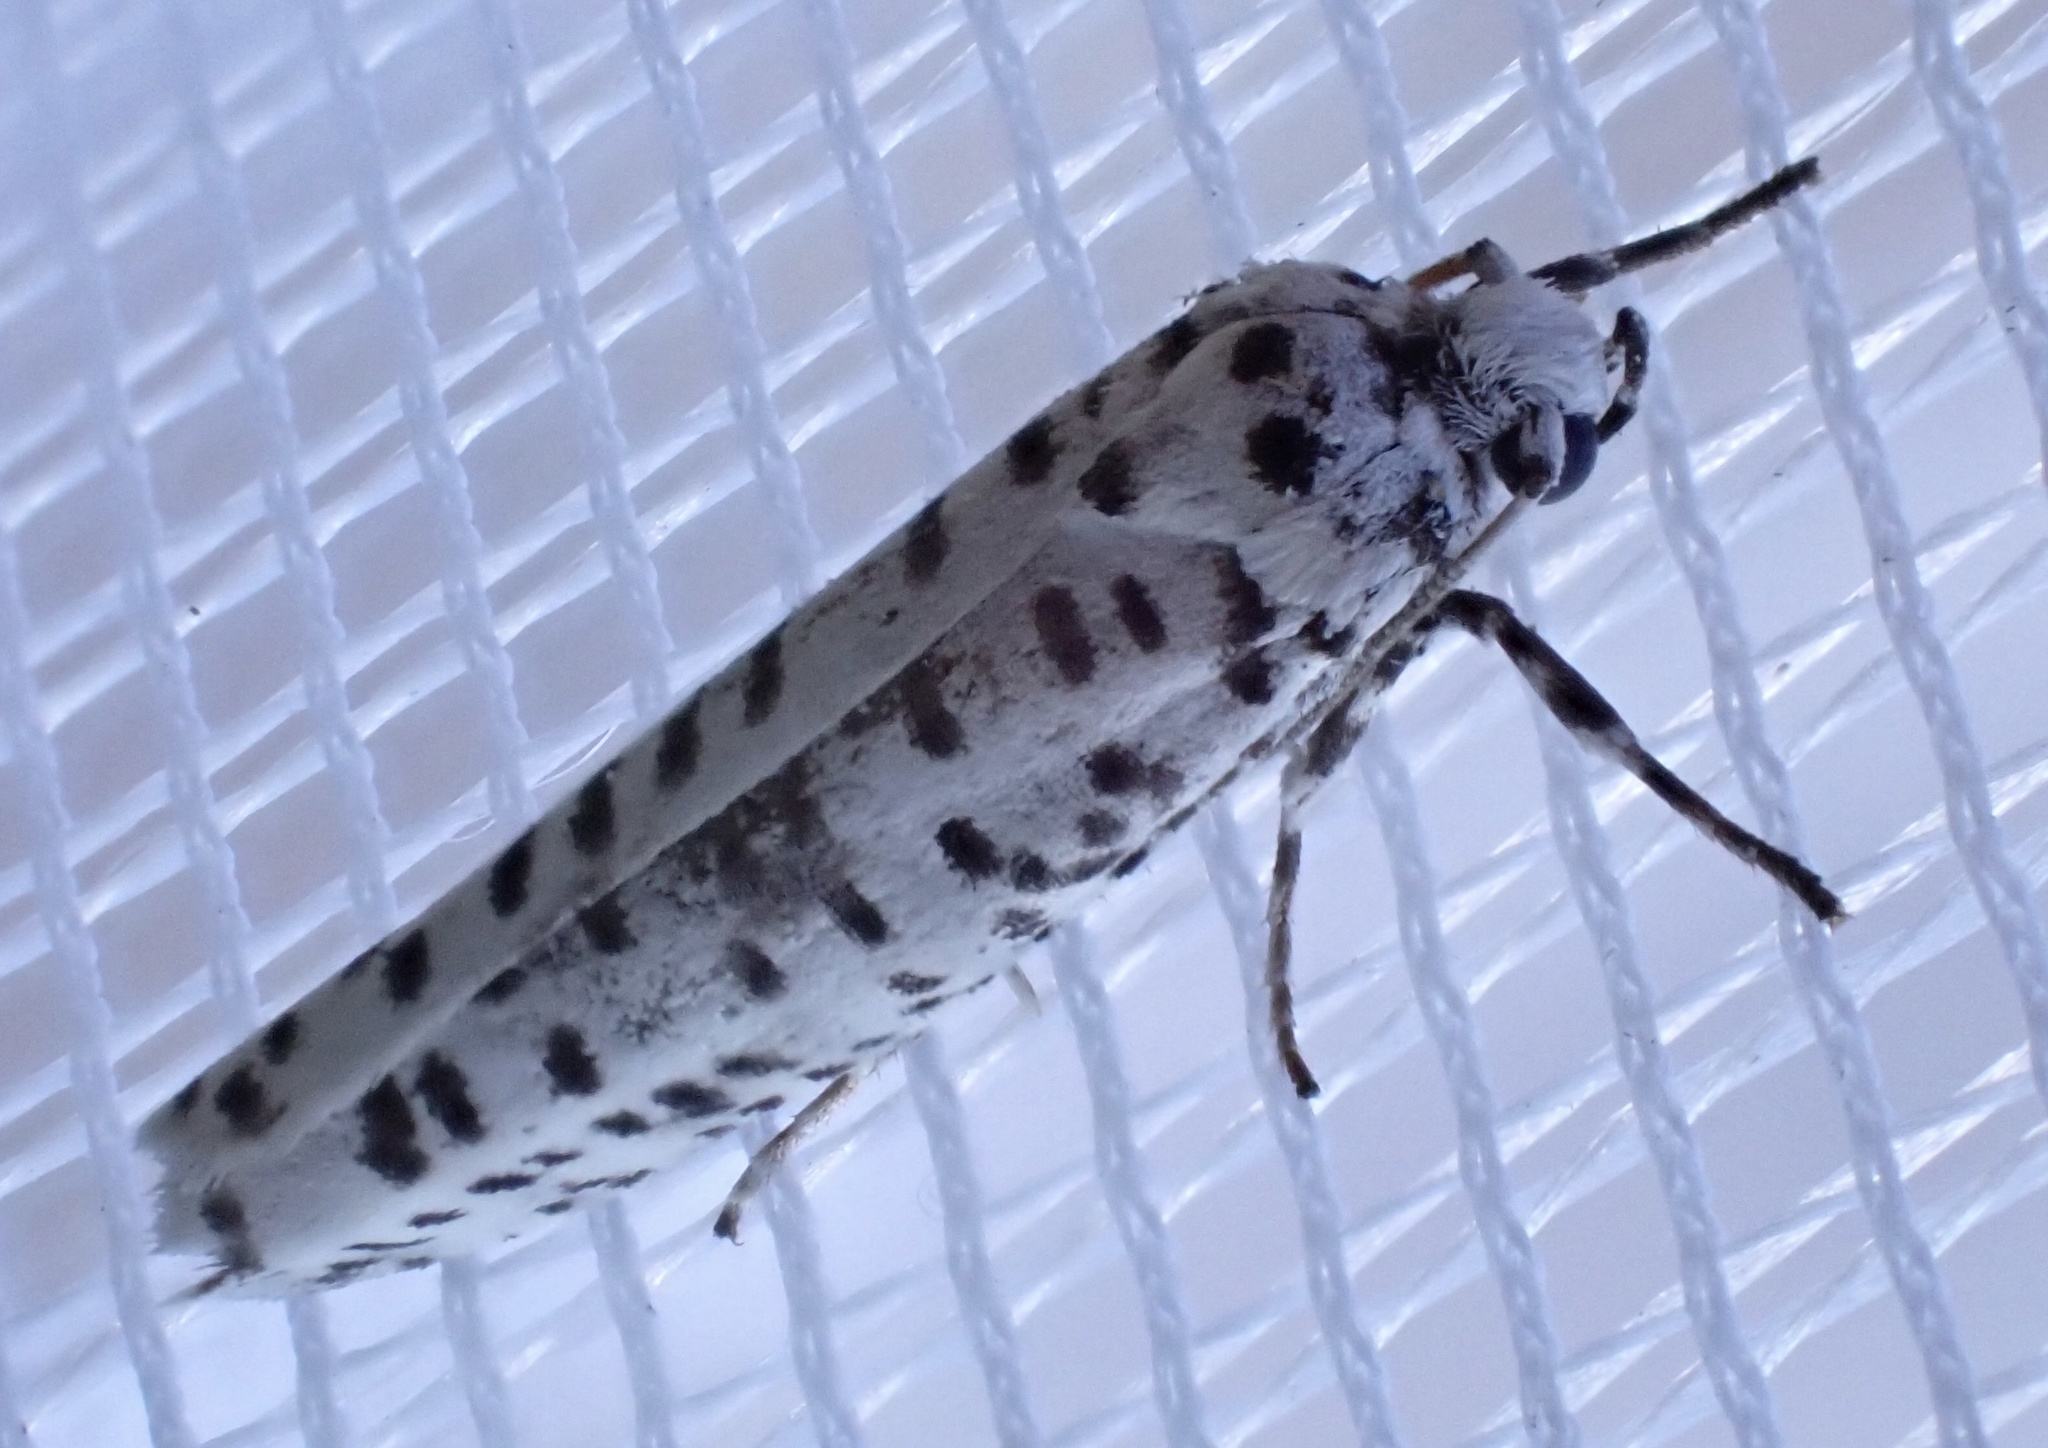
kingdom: Animalia
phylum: Arthropoda
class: Insecta
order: Lepidoptera
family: Yponomeutidae
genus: Yponomeuta
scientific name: Yponomeuta strigillata
